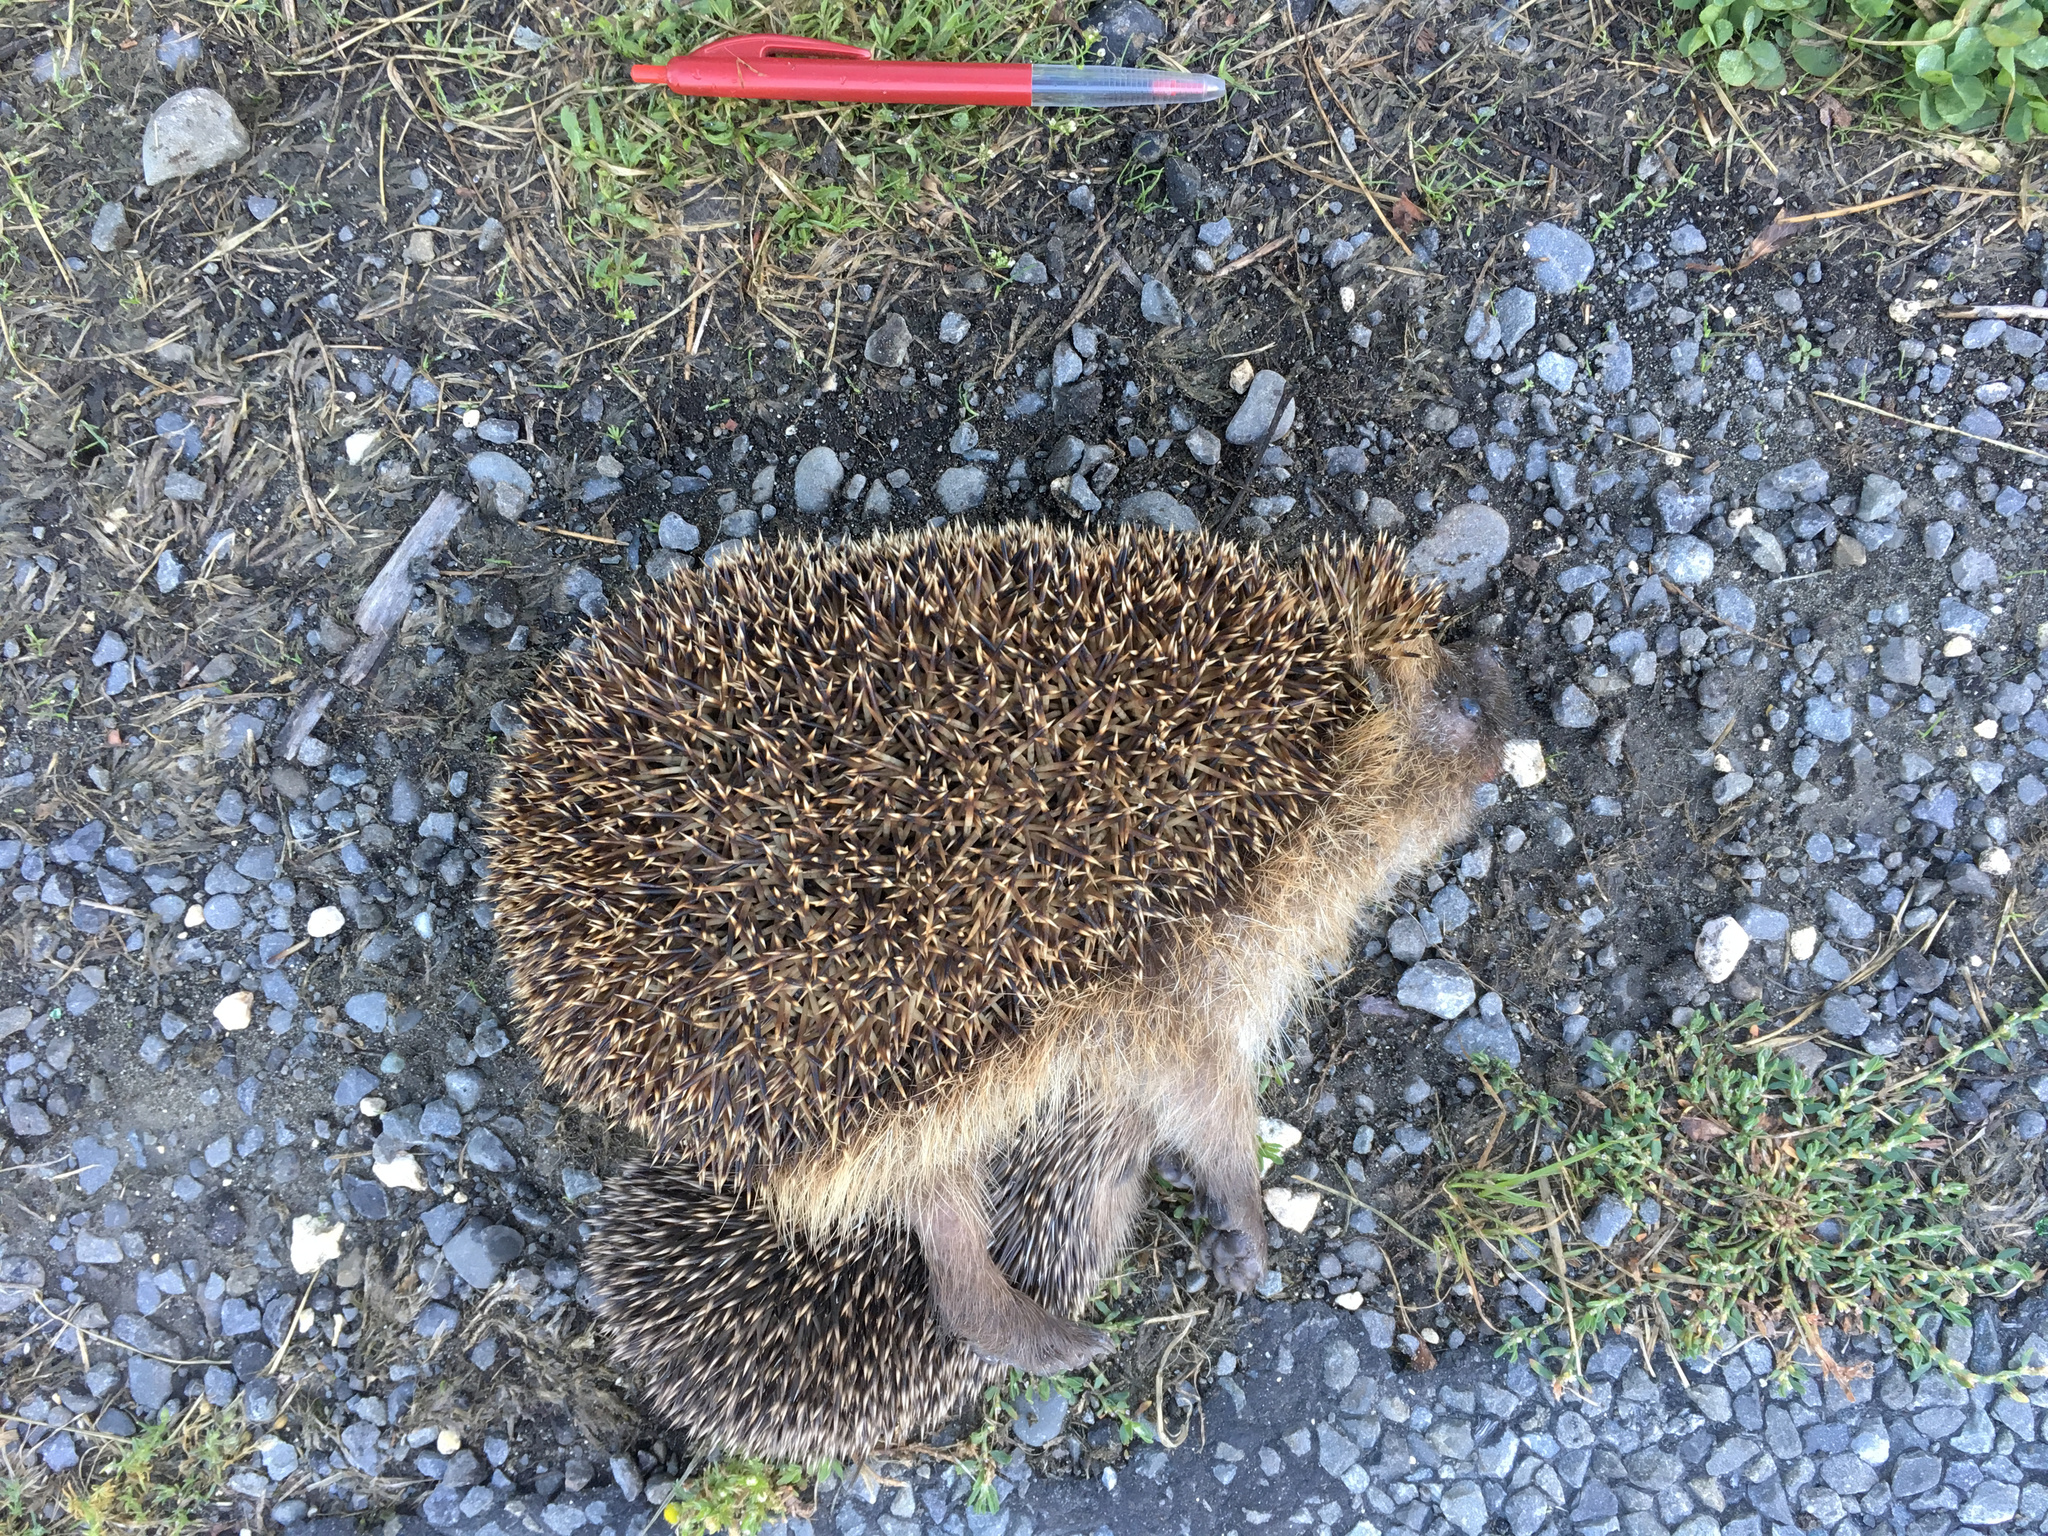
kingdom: Animalia
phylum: Chordata
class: Mammalia
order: Erinaceomorpha
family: Erinaceidae
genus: Erinaceus
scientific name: Erinaceus europaeus
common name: West european hedgehog
